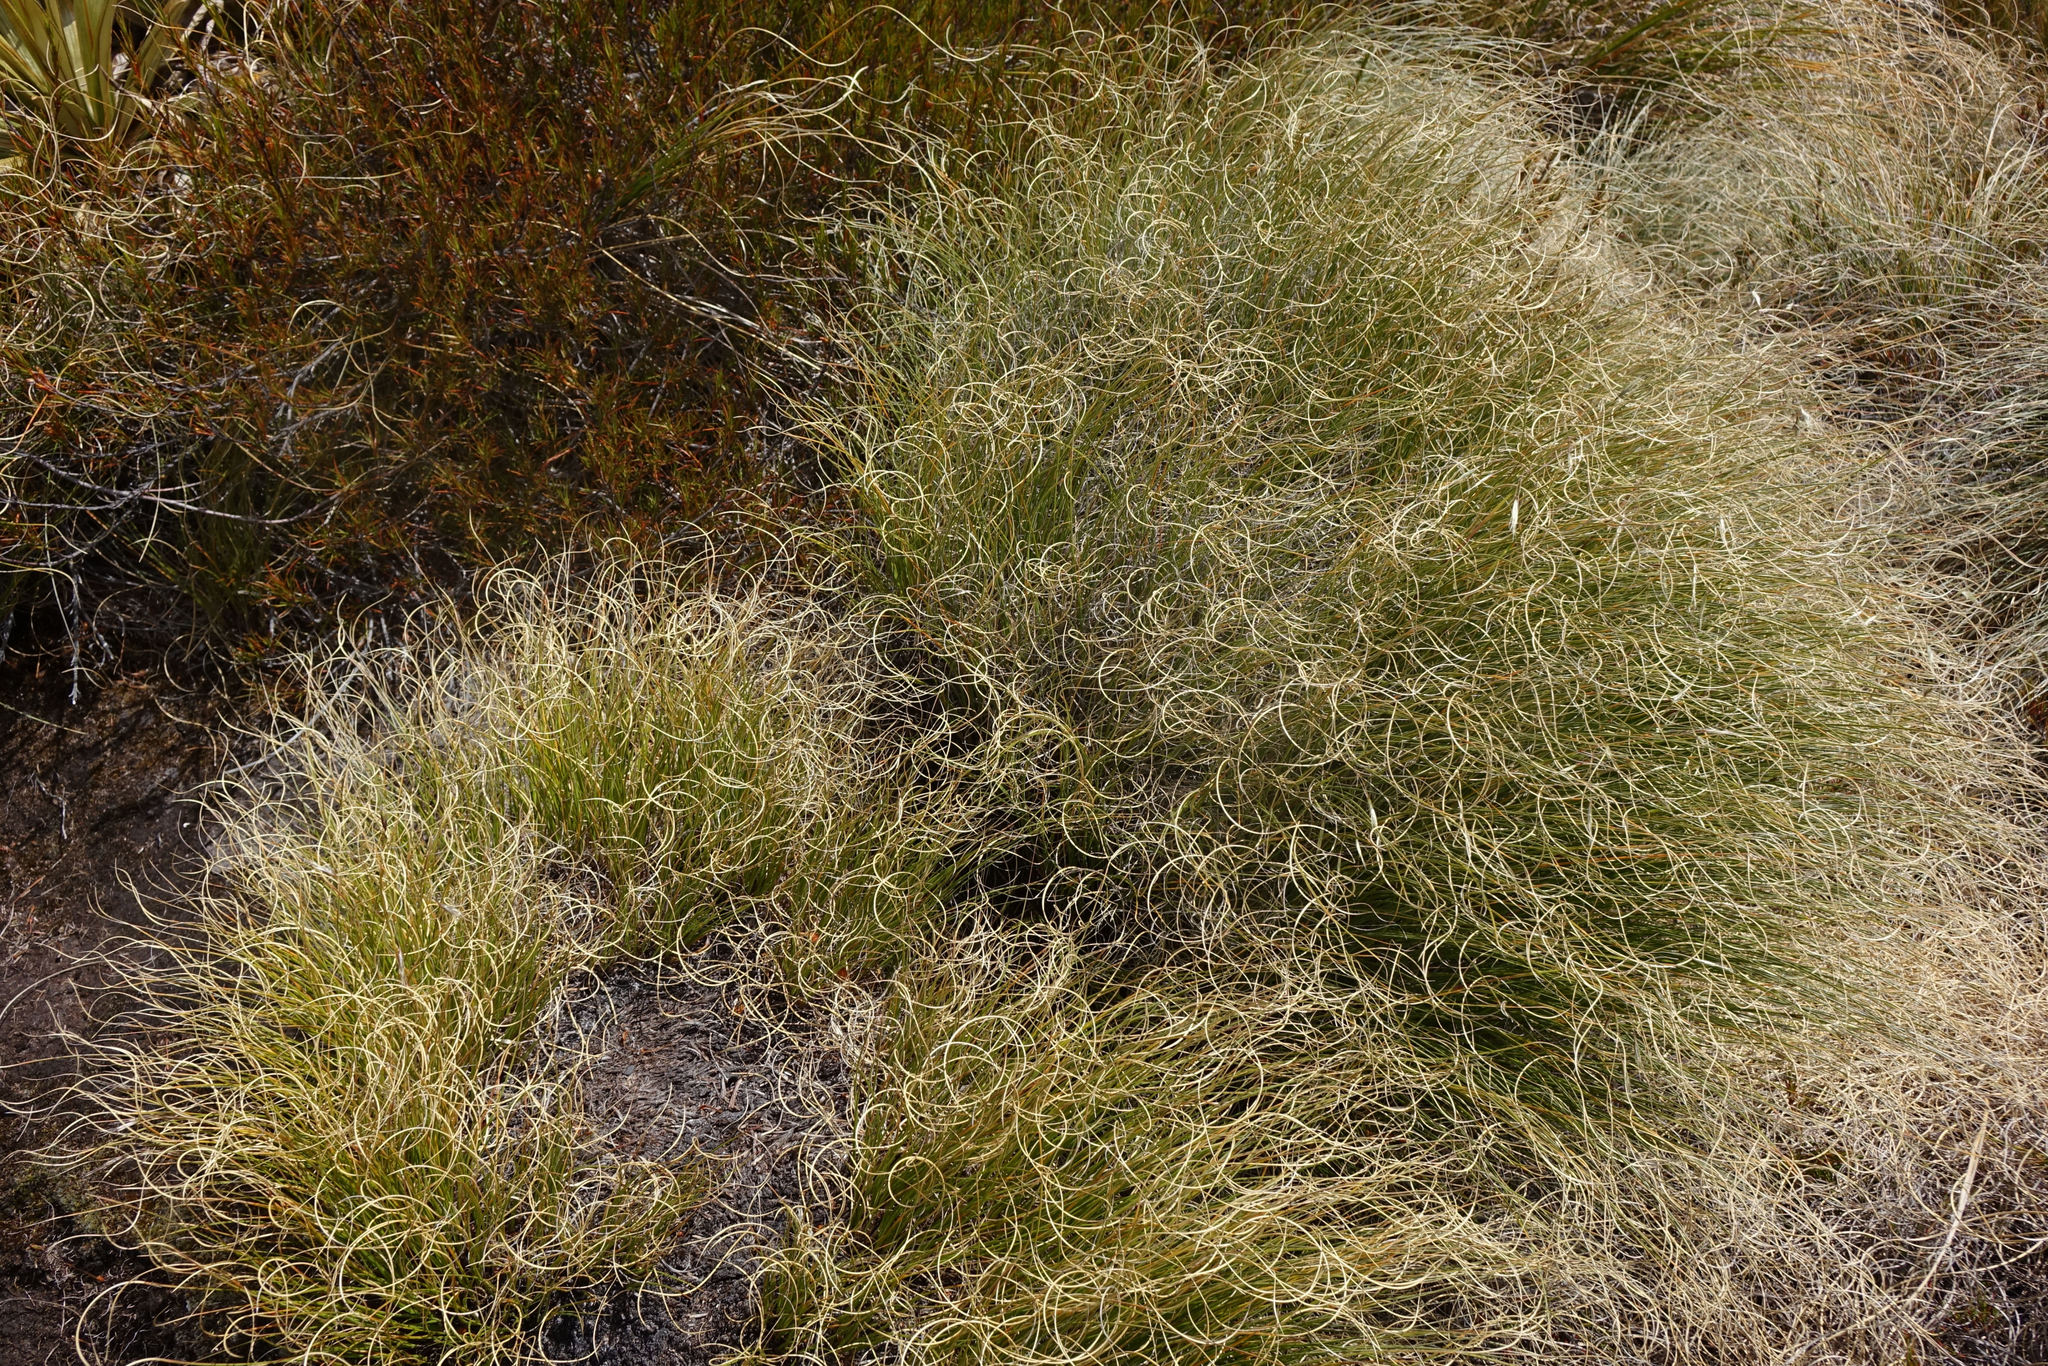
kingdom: Plantae
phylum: Tracheophyta
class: Liliopsida
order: Poales
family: Poaceae
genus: Chionochloa
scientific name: Chionochloa crassiuscula
